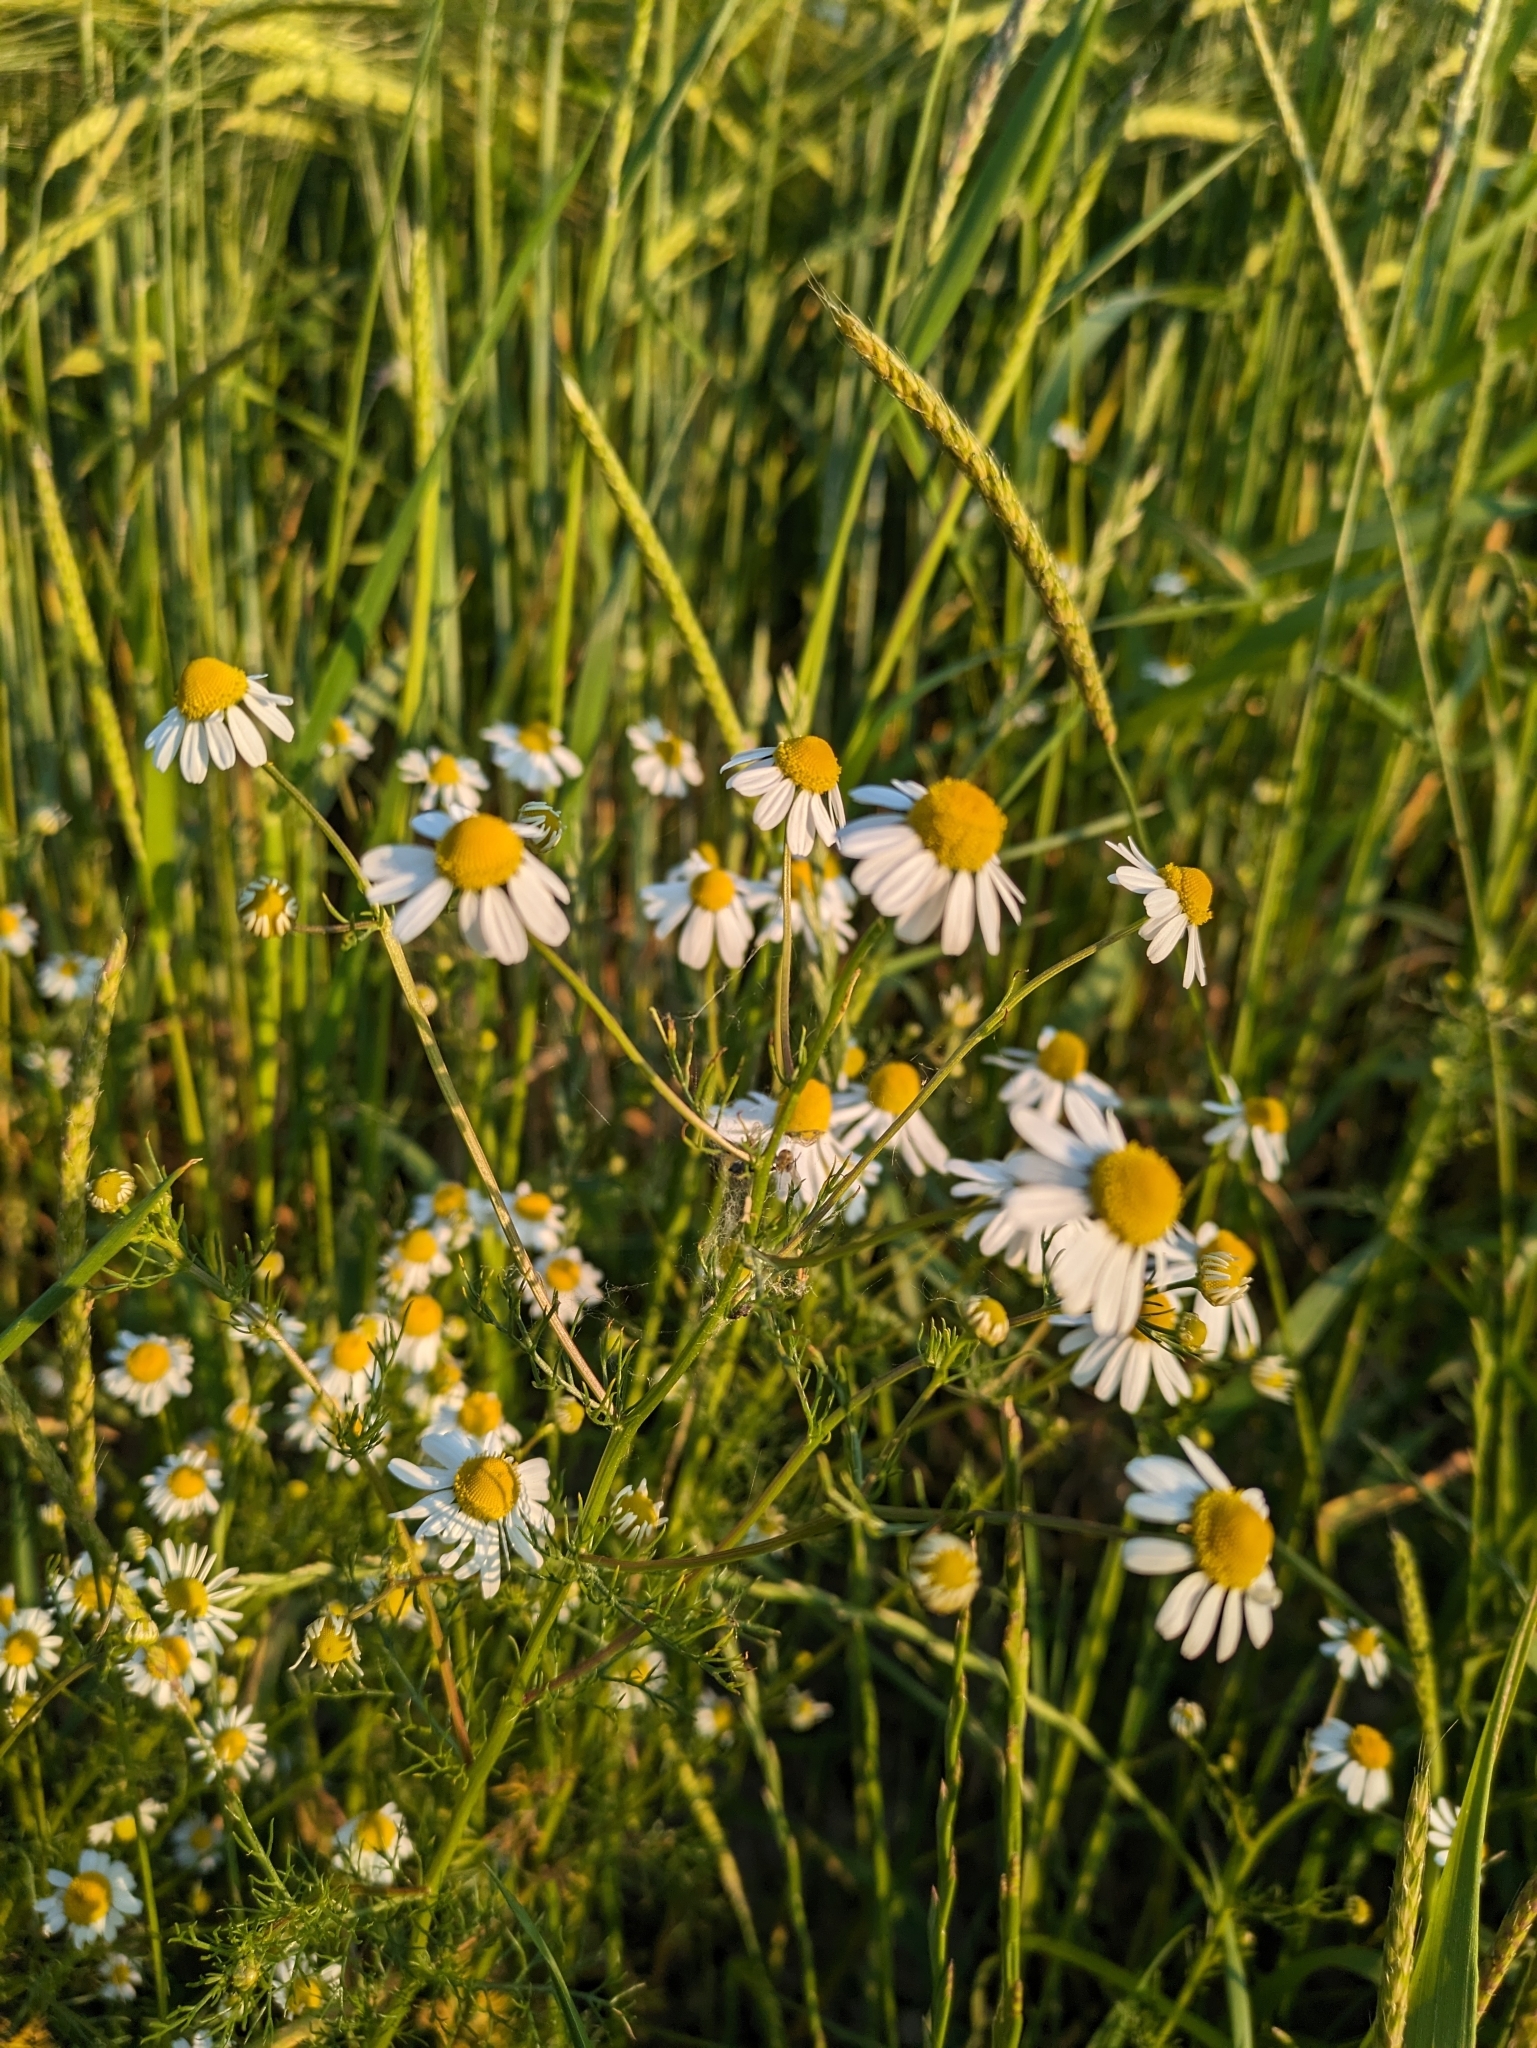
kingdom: Plantae
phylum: Tracheophyta
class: Magnoliopsida
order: Asterales
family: Asteraceae
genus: Matricaria
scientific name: Matricaria chamomilla
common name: Scented mayweed
